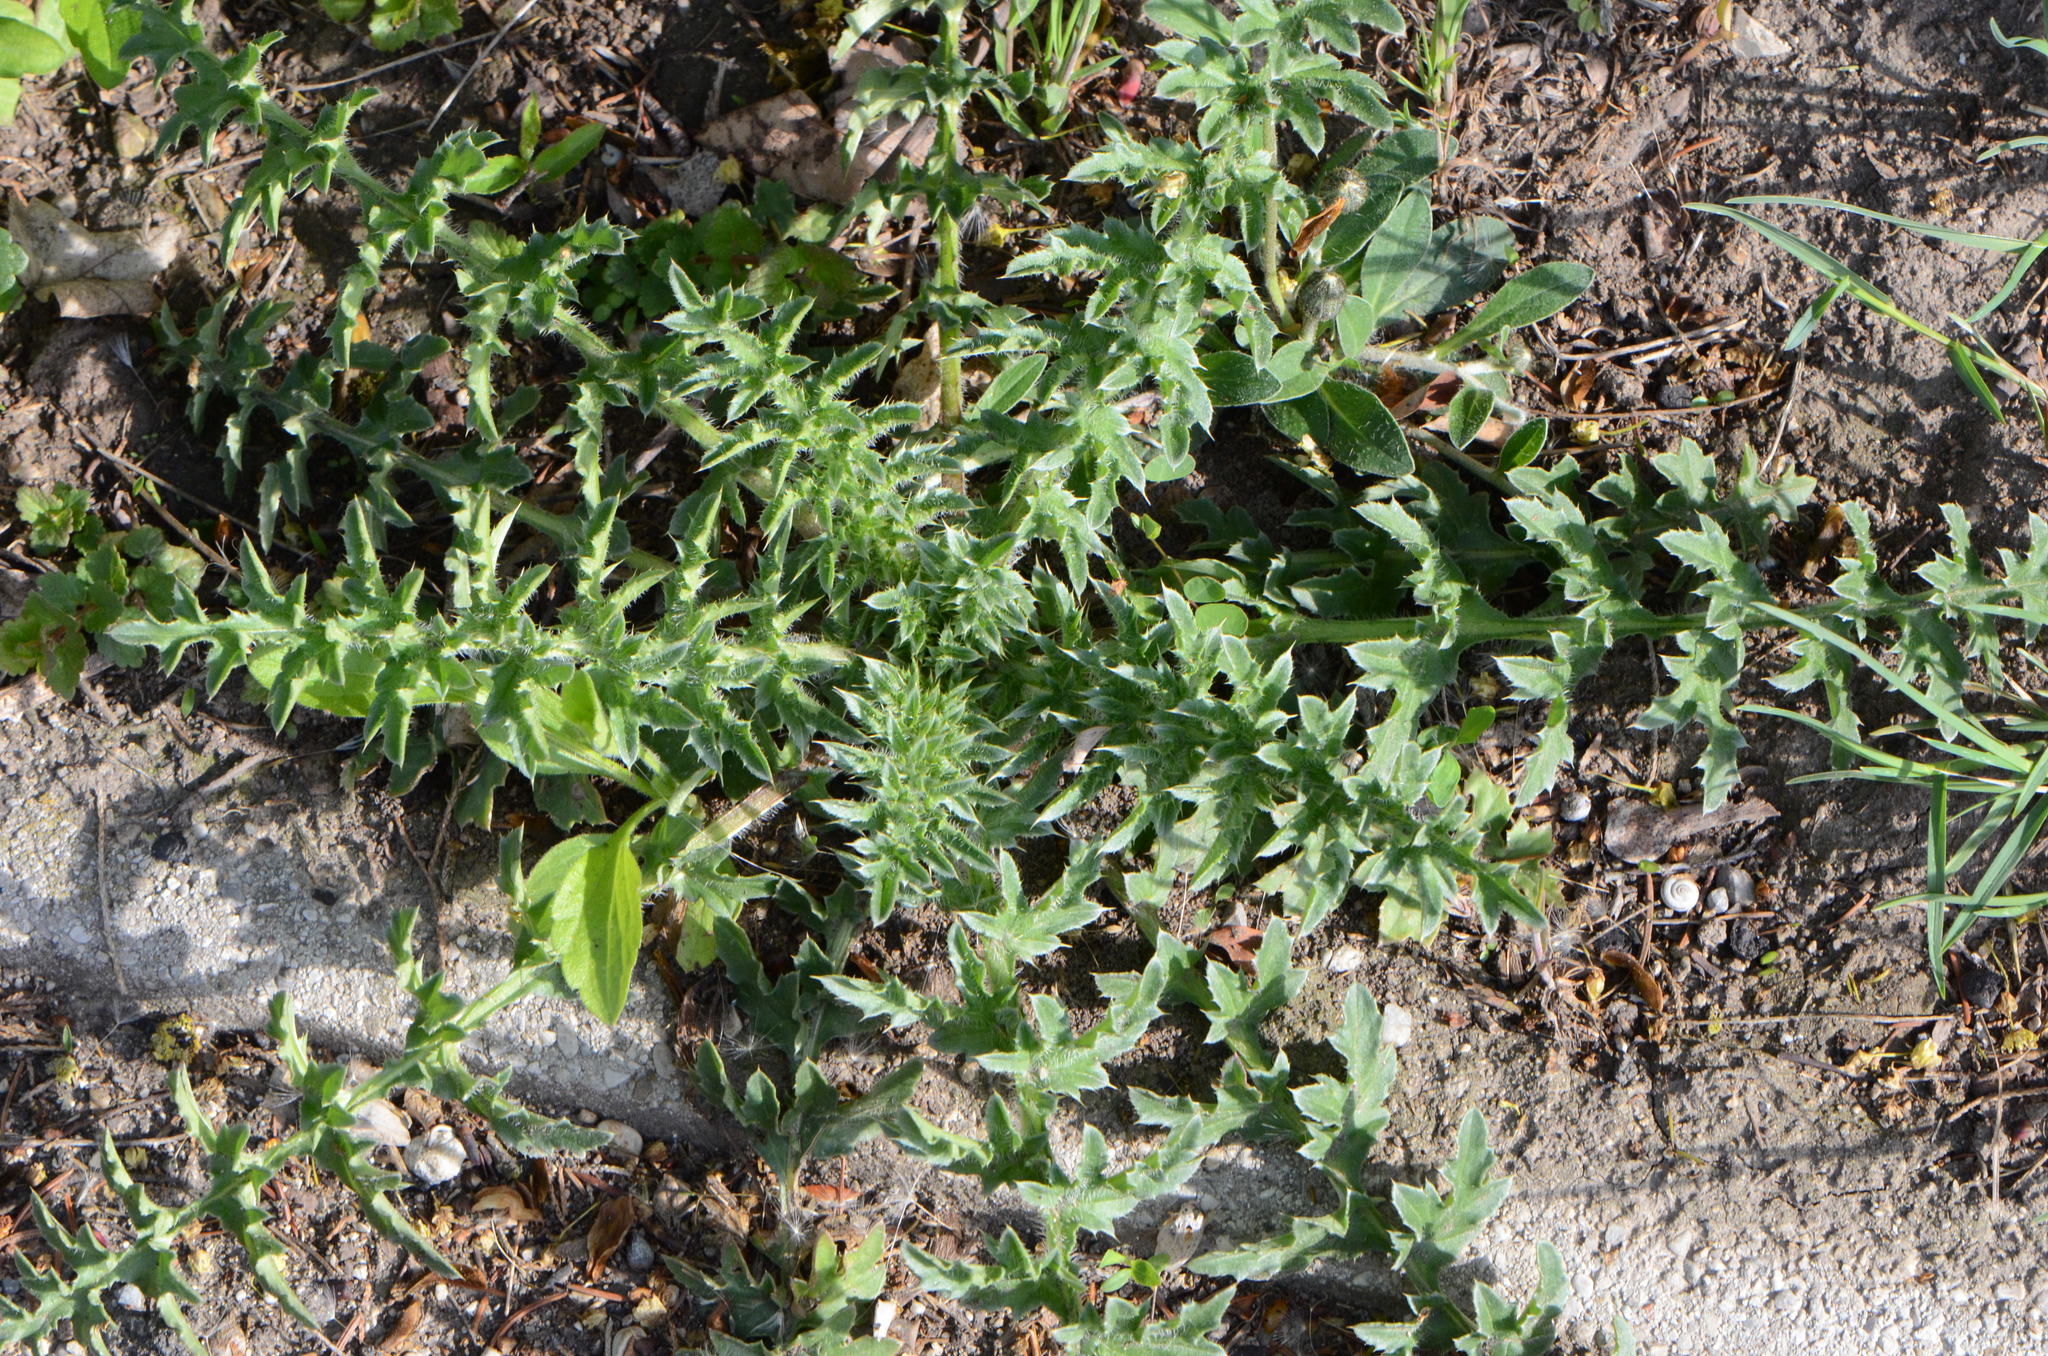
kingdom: Plantae
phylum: Tracheophyta
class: Magnoliopsida
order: Asterales
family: Asteraceae
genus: Carduus
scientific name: Carduus acanthoides
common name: Plumeless thistle
